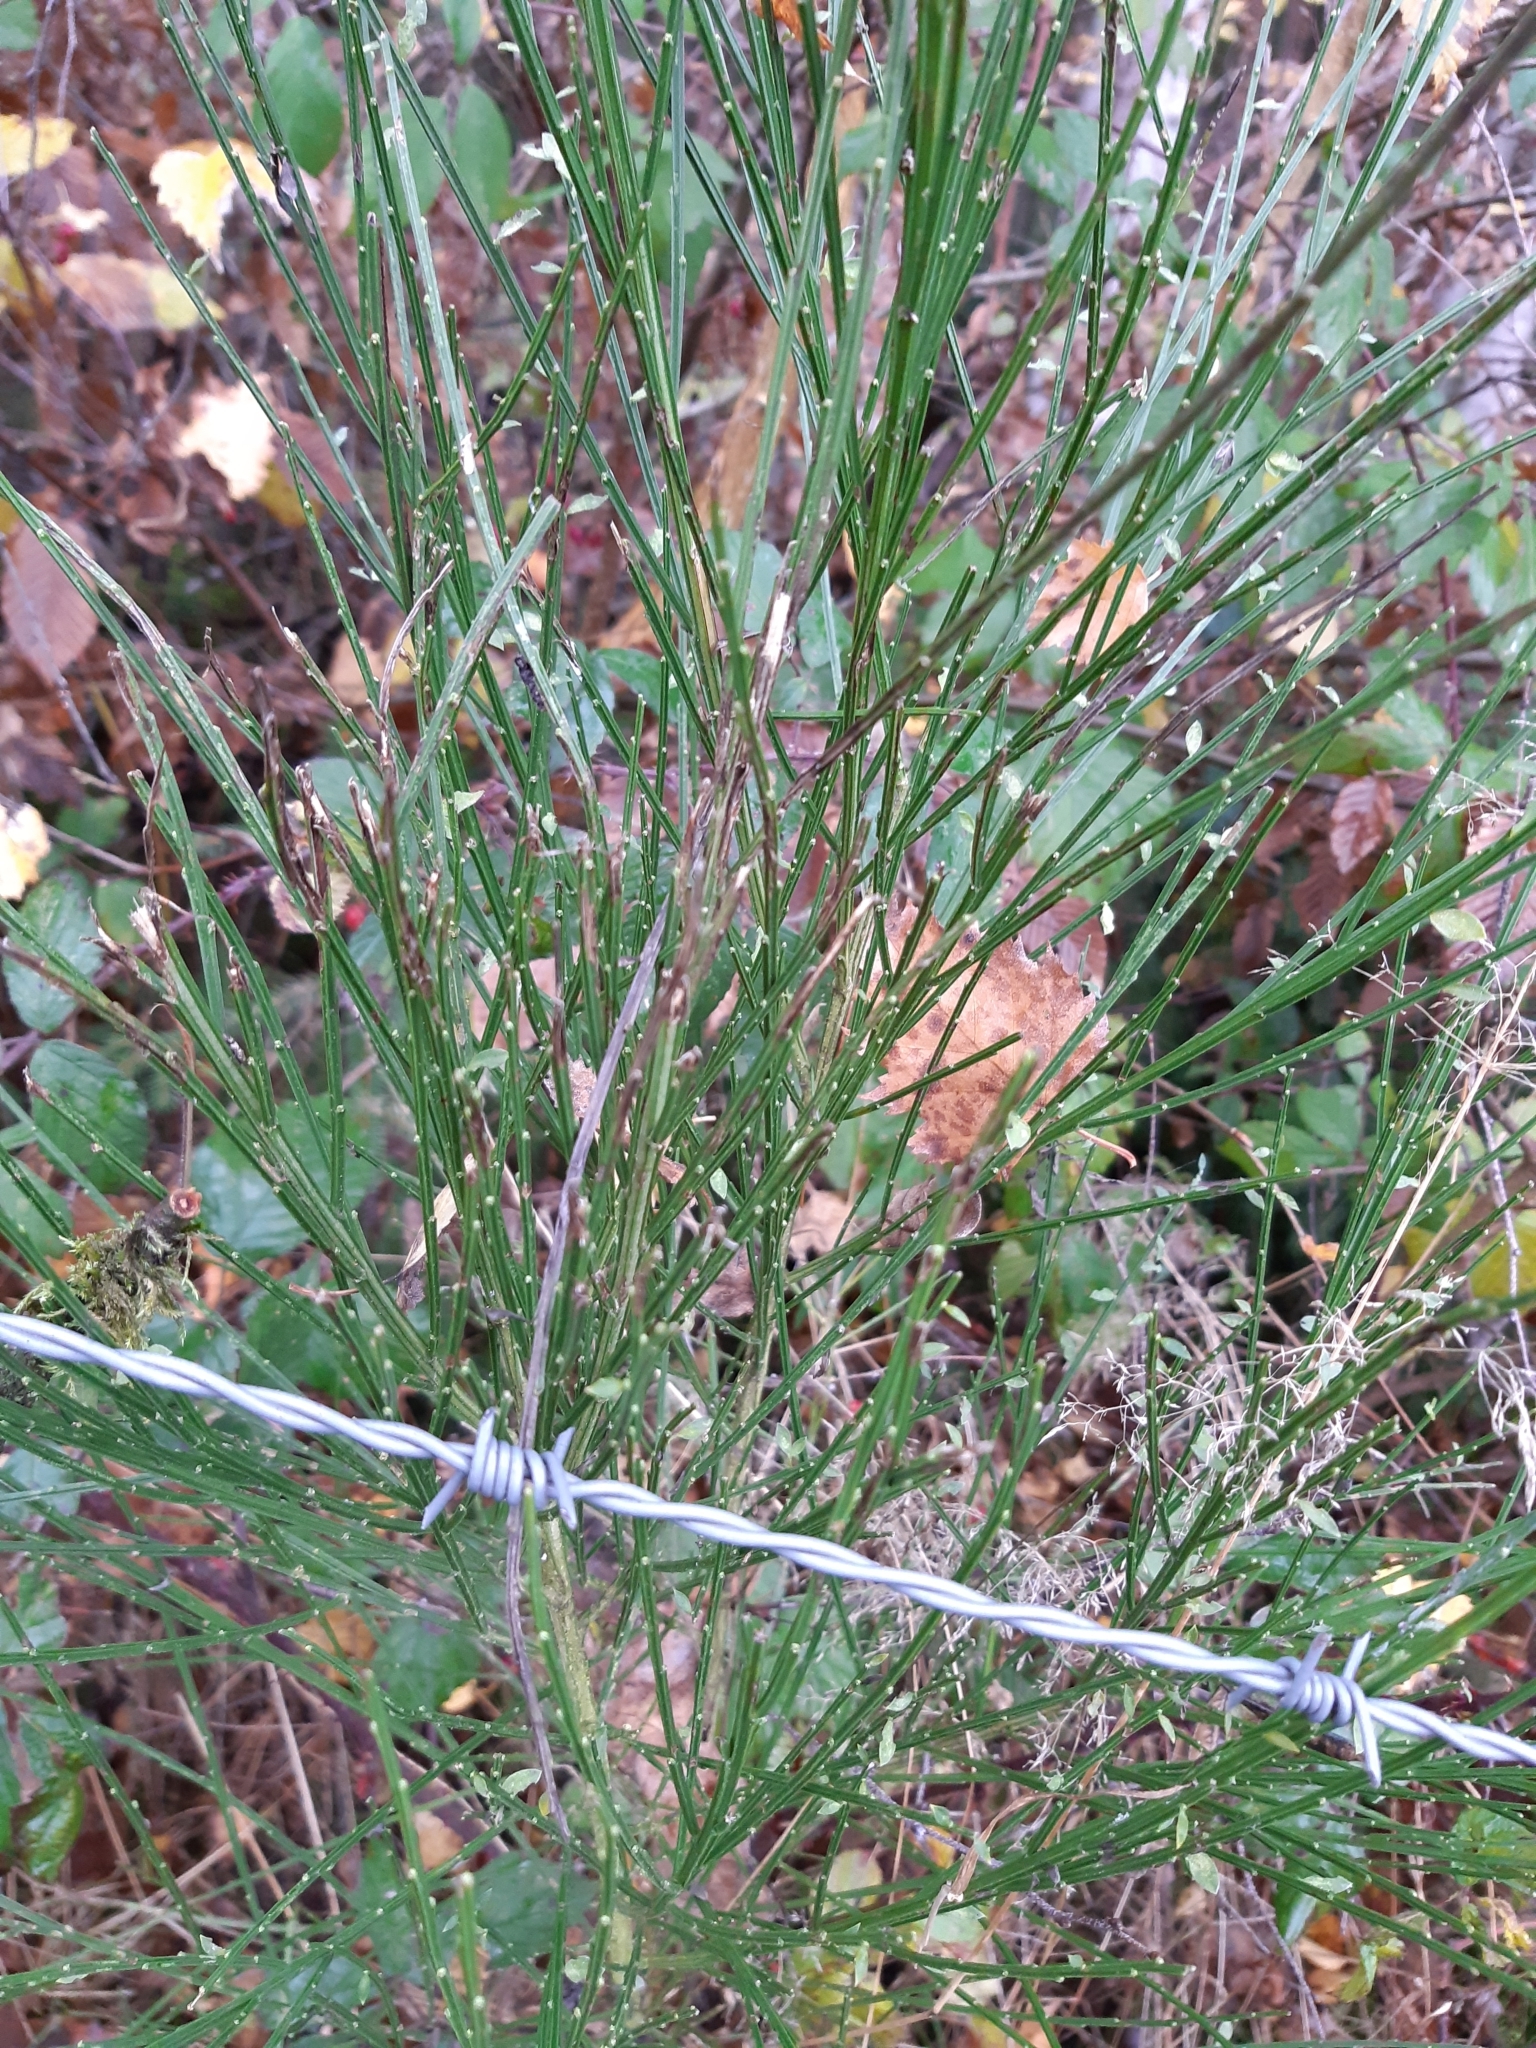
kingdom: Plantae
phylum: Tracheophyta
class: Magnoliopsida
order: Fabales
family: Fabaceae
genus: Cytisus
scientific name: Cytisus scoparius
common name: Scotch broom
